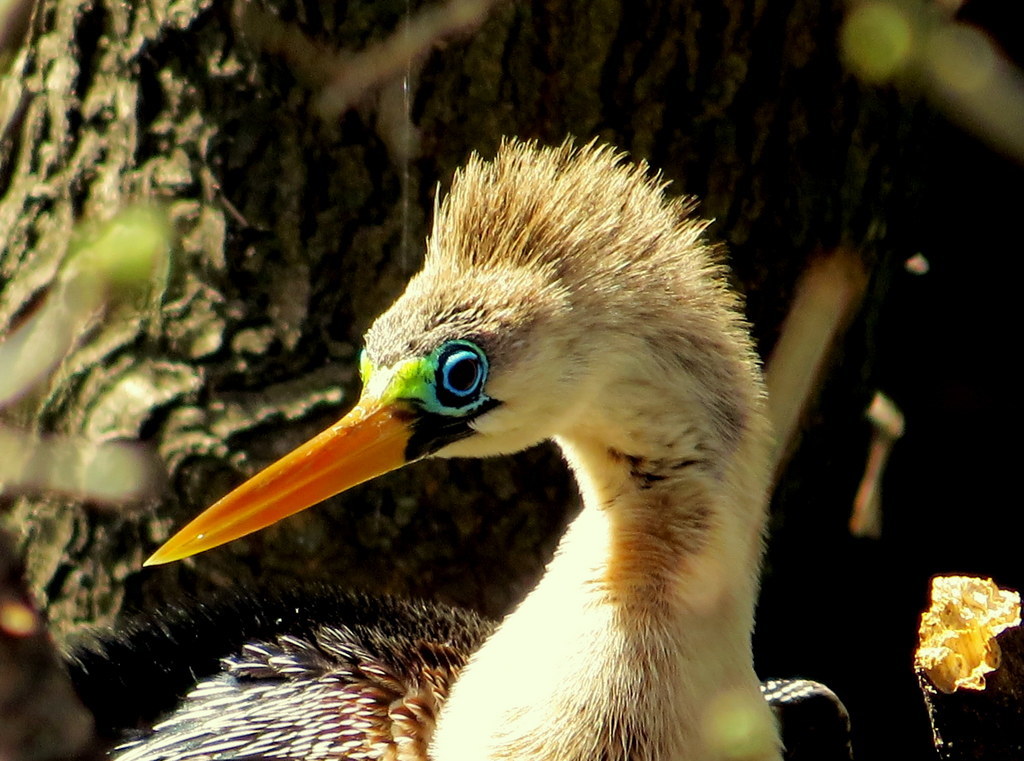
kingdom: Animalia
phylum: Chordata
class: Aves
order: Suliformes
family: Anhingidae
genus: Anhinga
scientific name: Anhinga anhinga
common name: Anhinga
